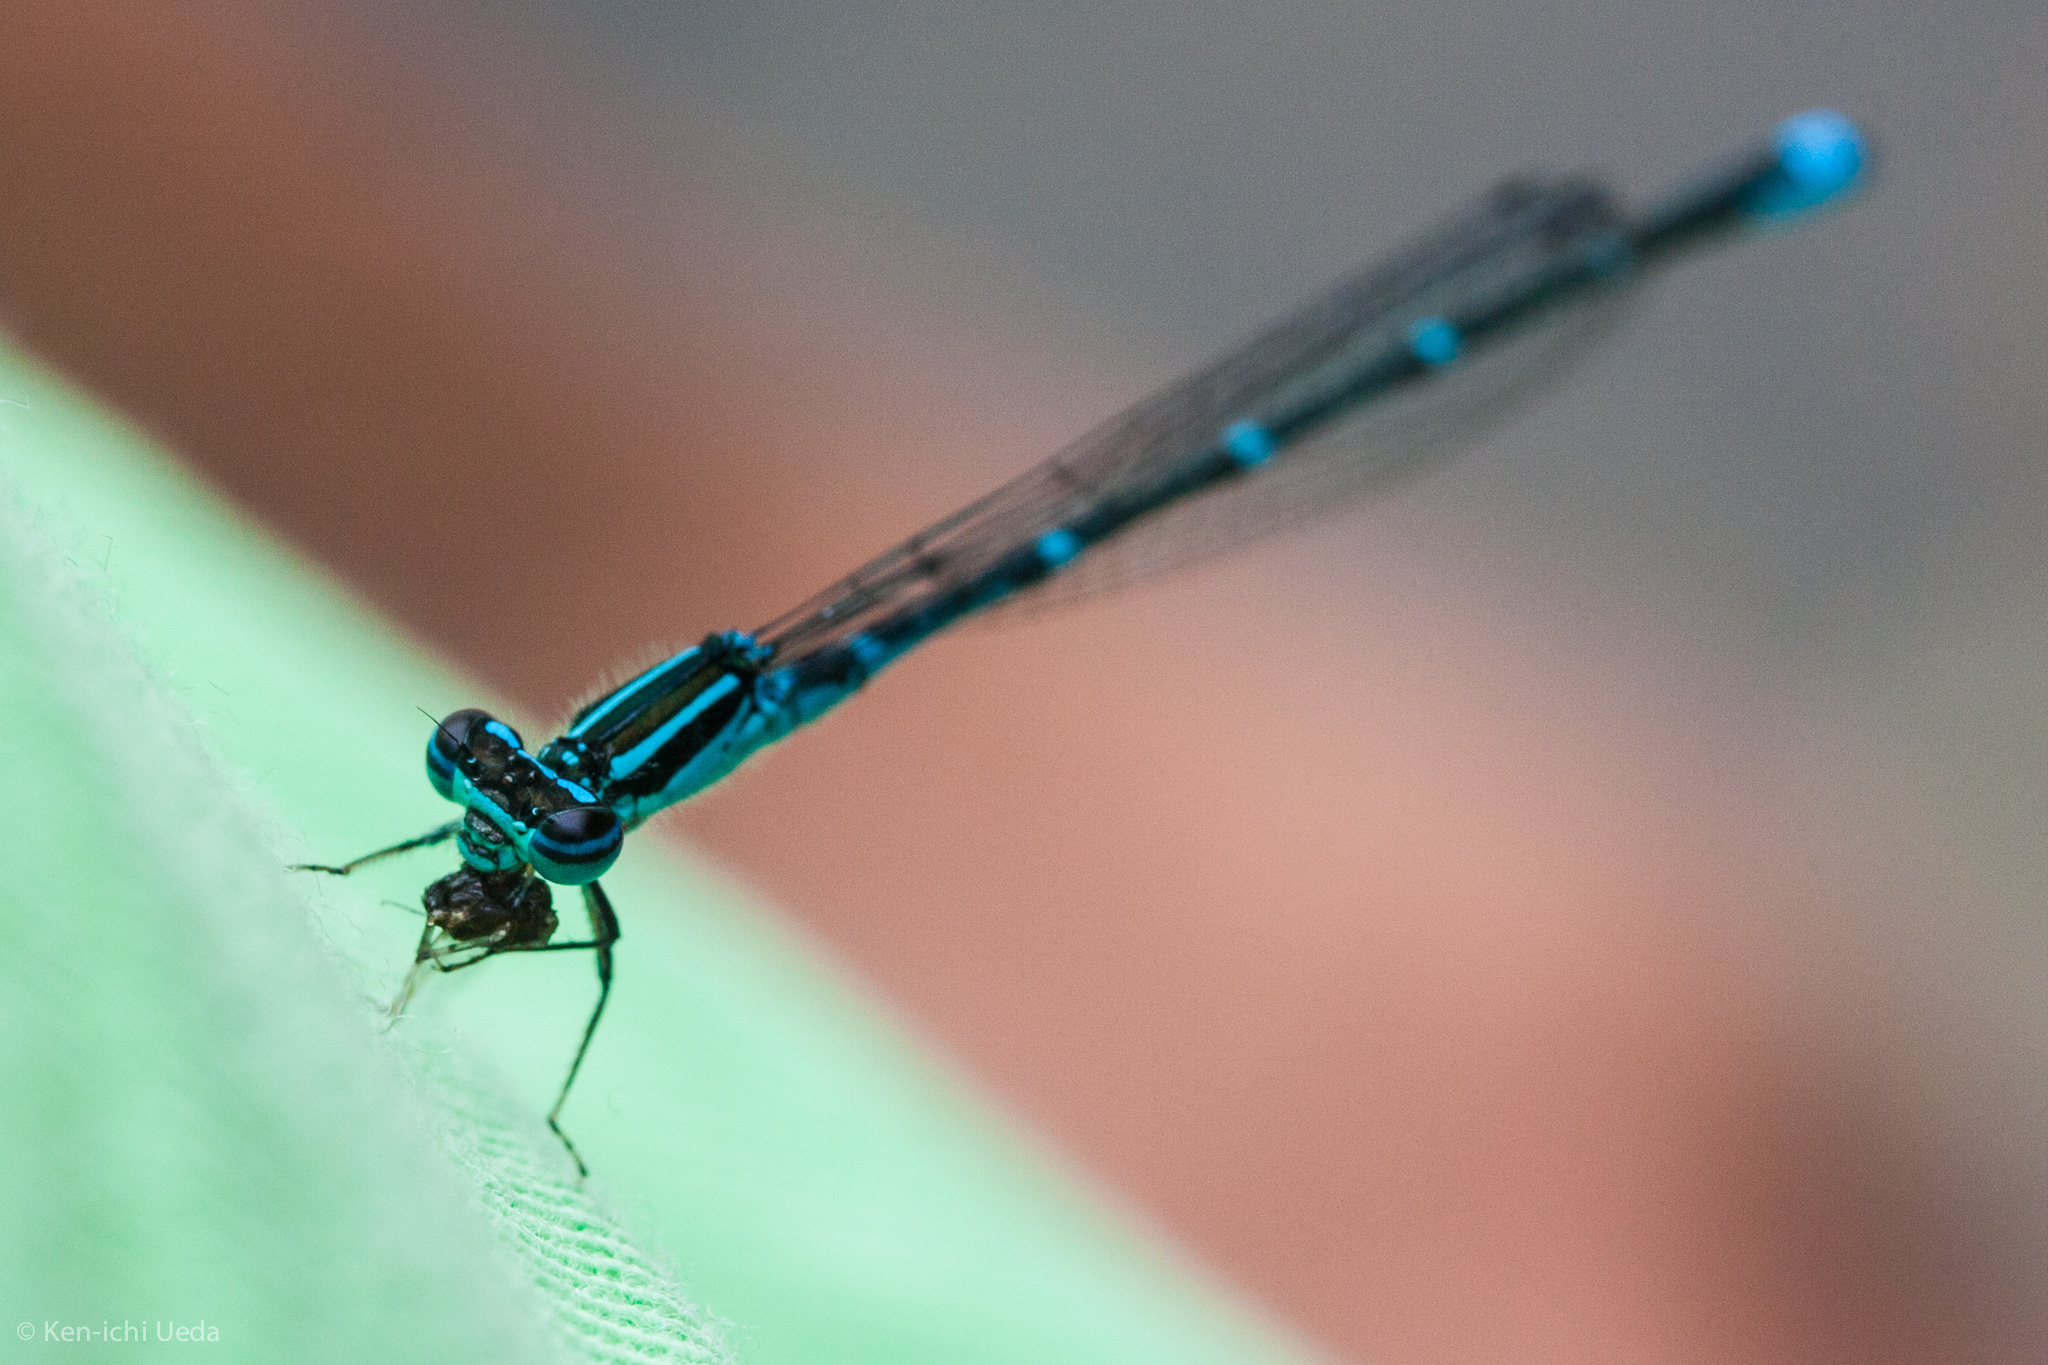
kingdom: Animalia
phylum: Arthropoda
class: Insecta
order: Odonata
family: Coenagrionidae
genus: Enallagma
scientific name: Enallagma exsulans
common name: Stream bluet
